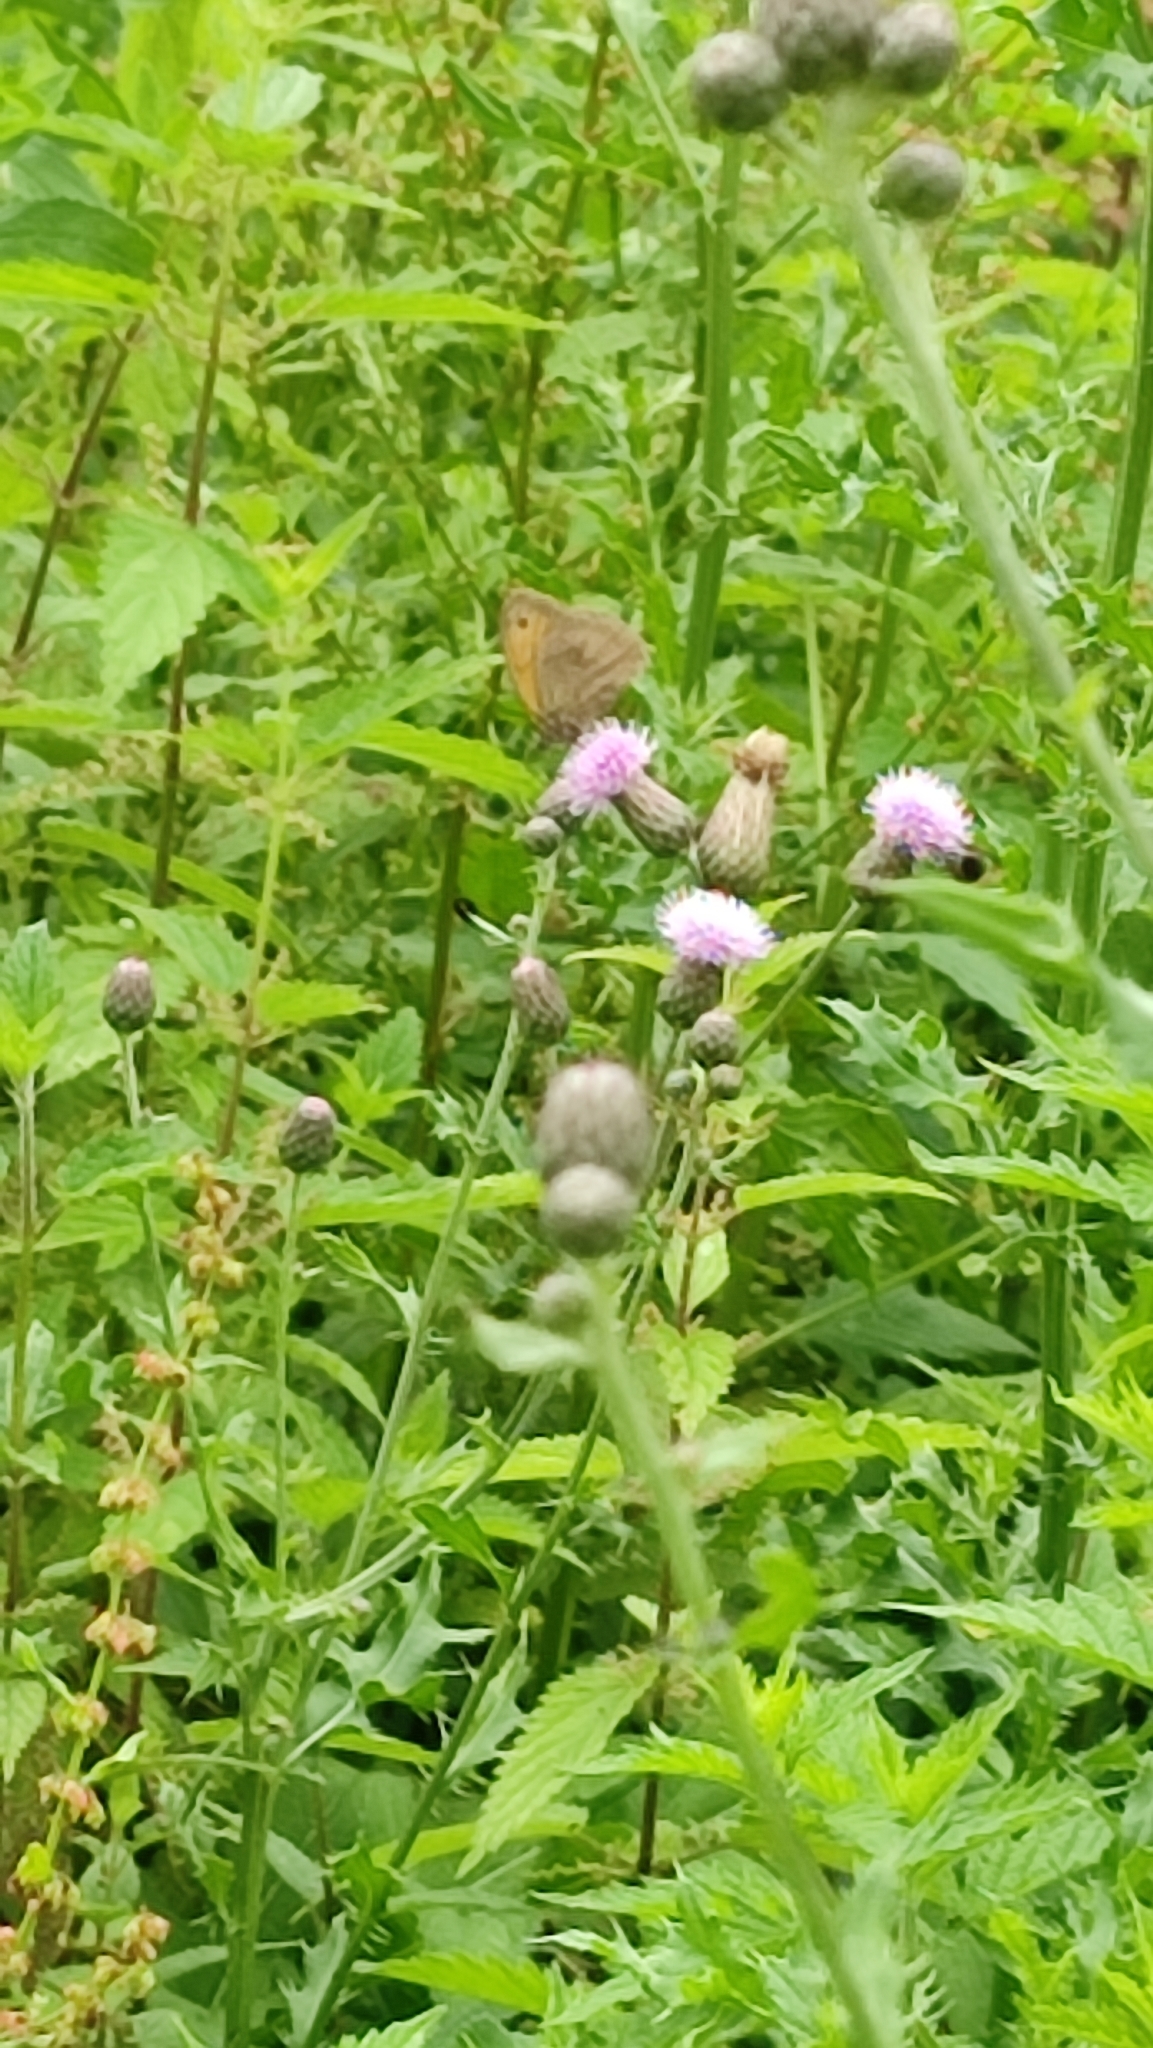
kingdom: Animalia
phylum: Arthropoda
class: Insecta
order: Lepidoptera
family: Nymphalidae
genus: Maniola
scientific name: Maniola jurtina
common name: Meadow brown
